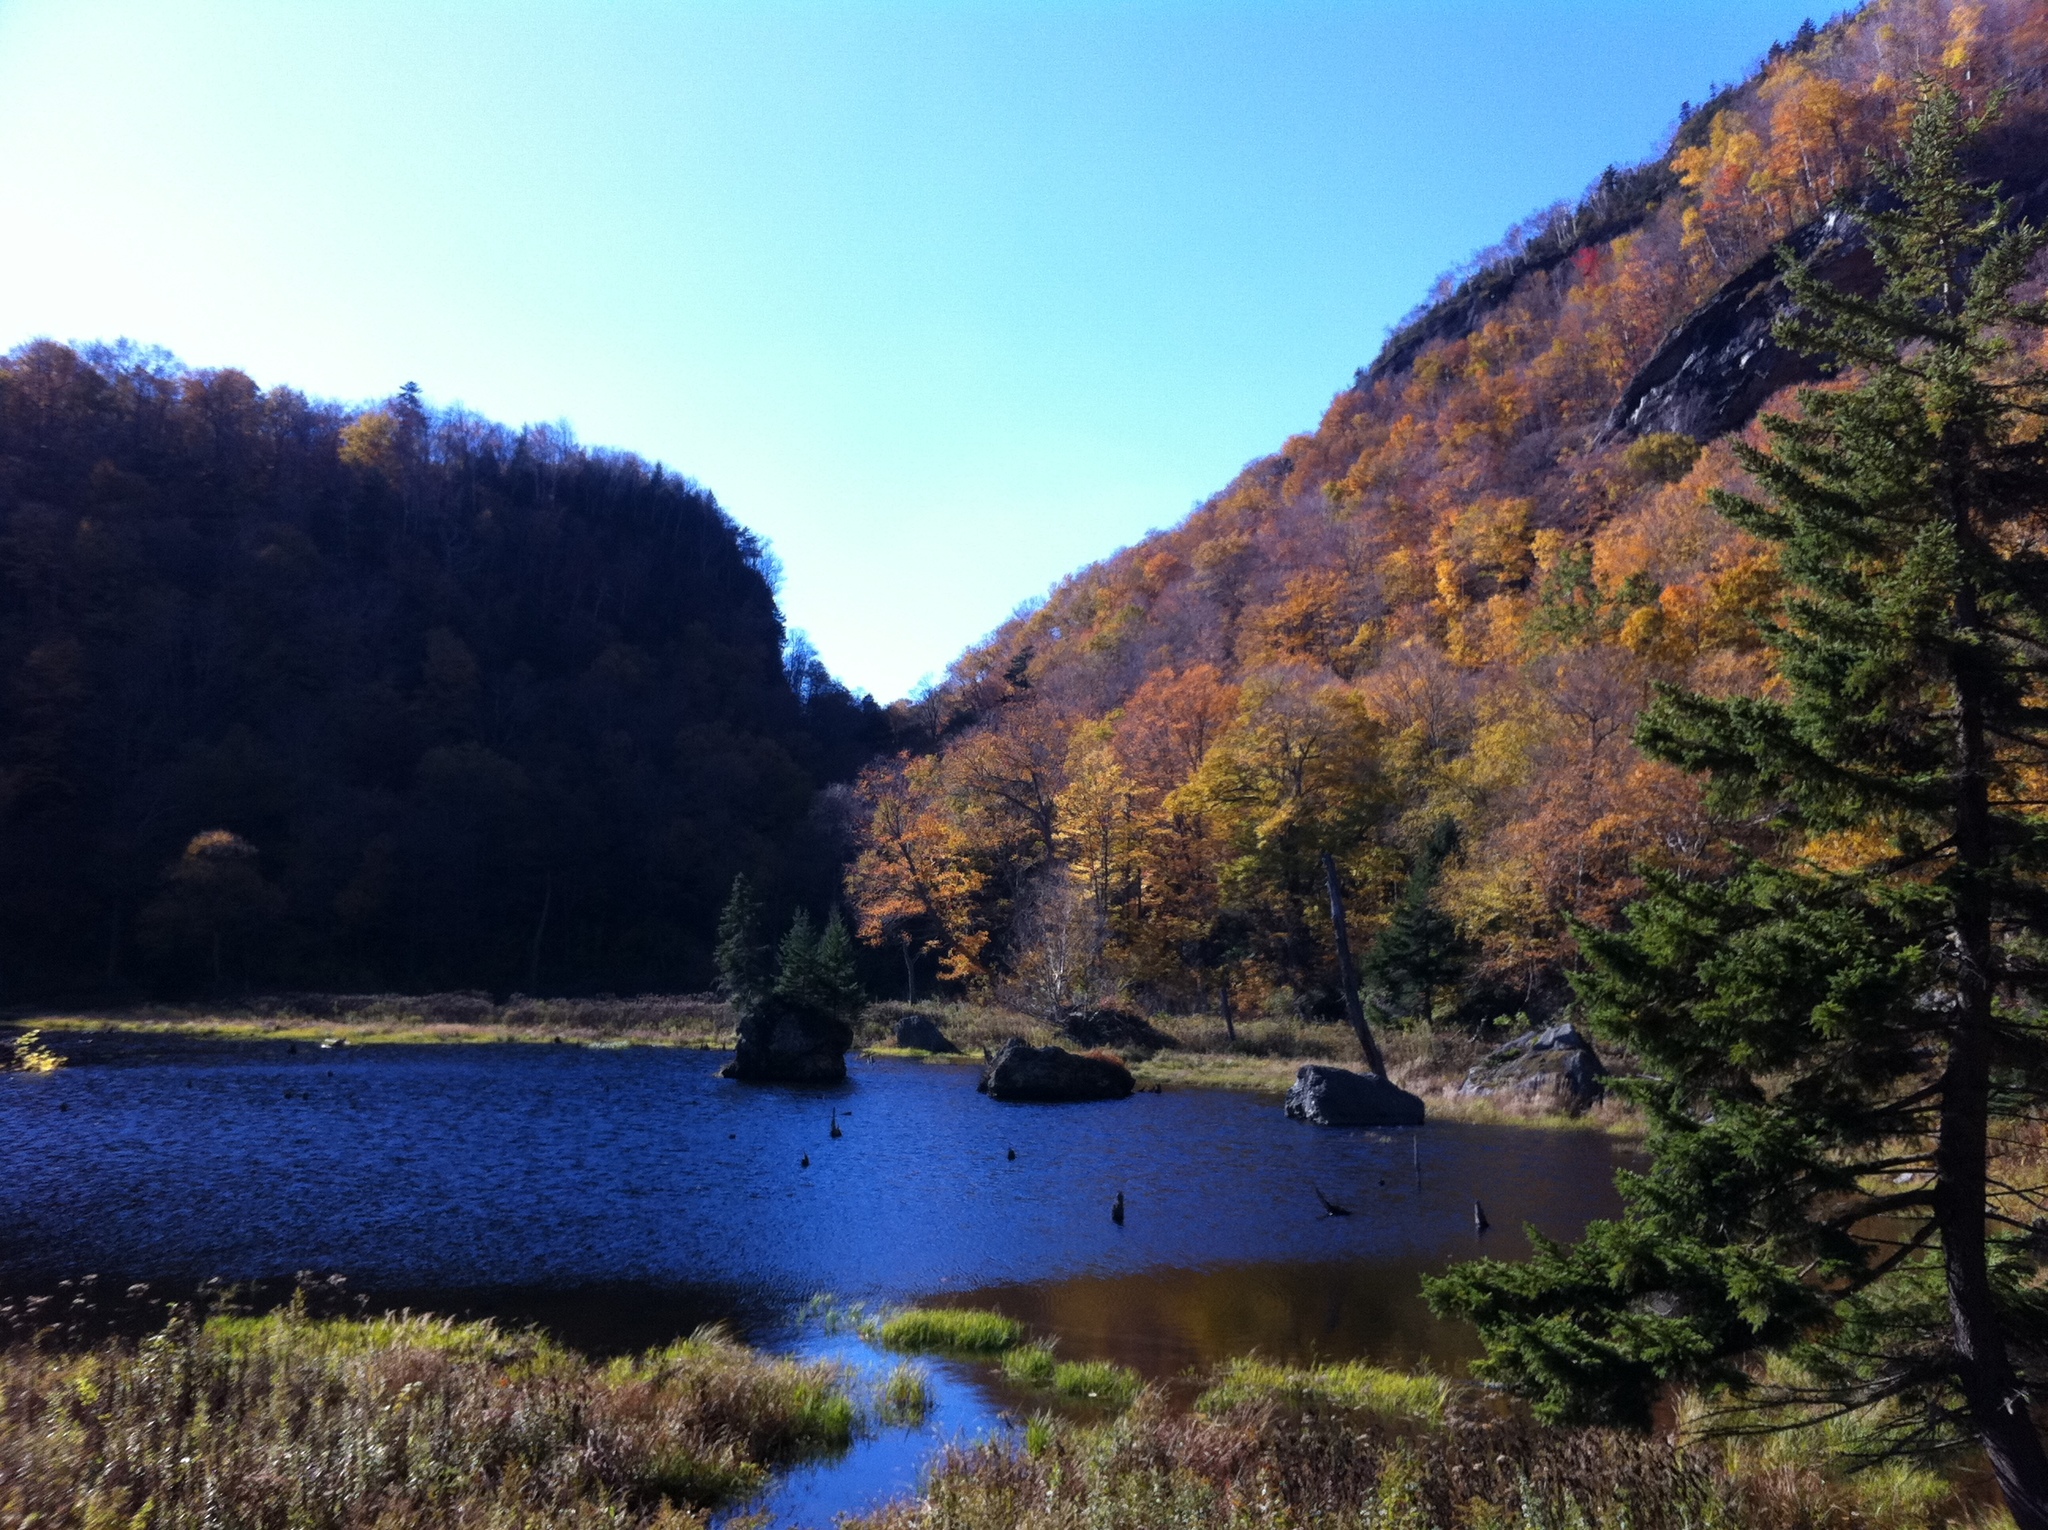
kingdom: Plantae
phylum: Tracheophyta
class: Pinopsida
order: Pinales
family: Pinaceae
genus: Picea
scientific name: Picea rubens
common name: Red spruce
